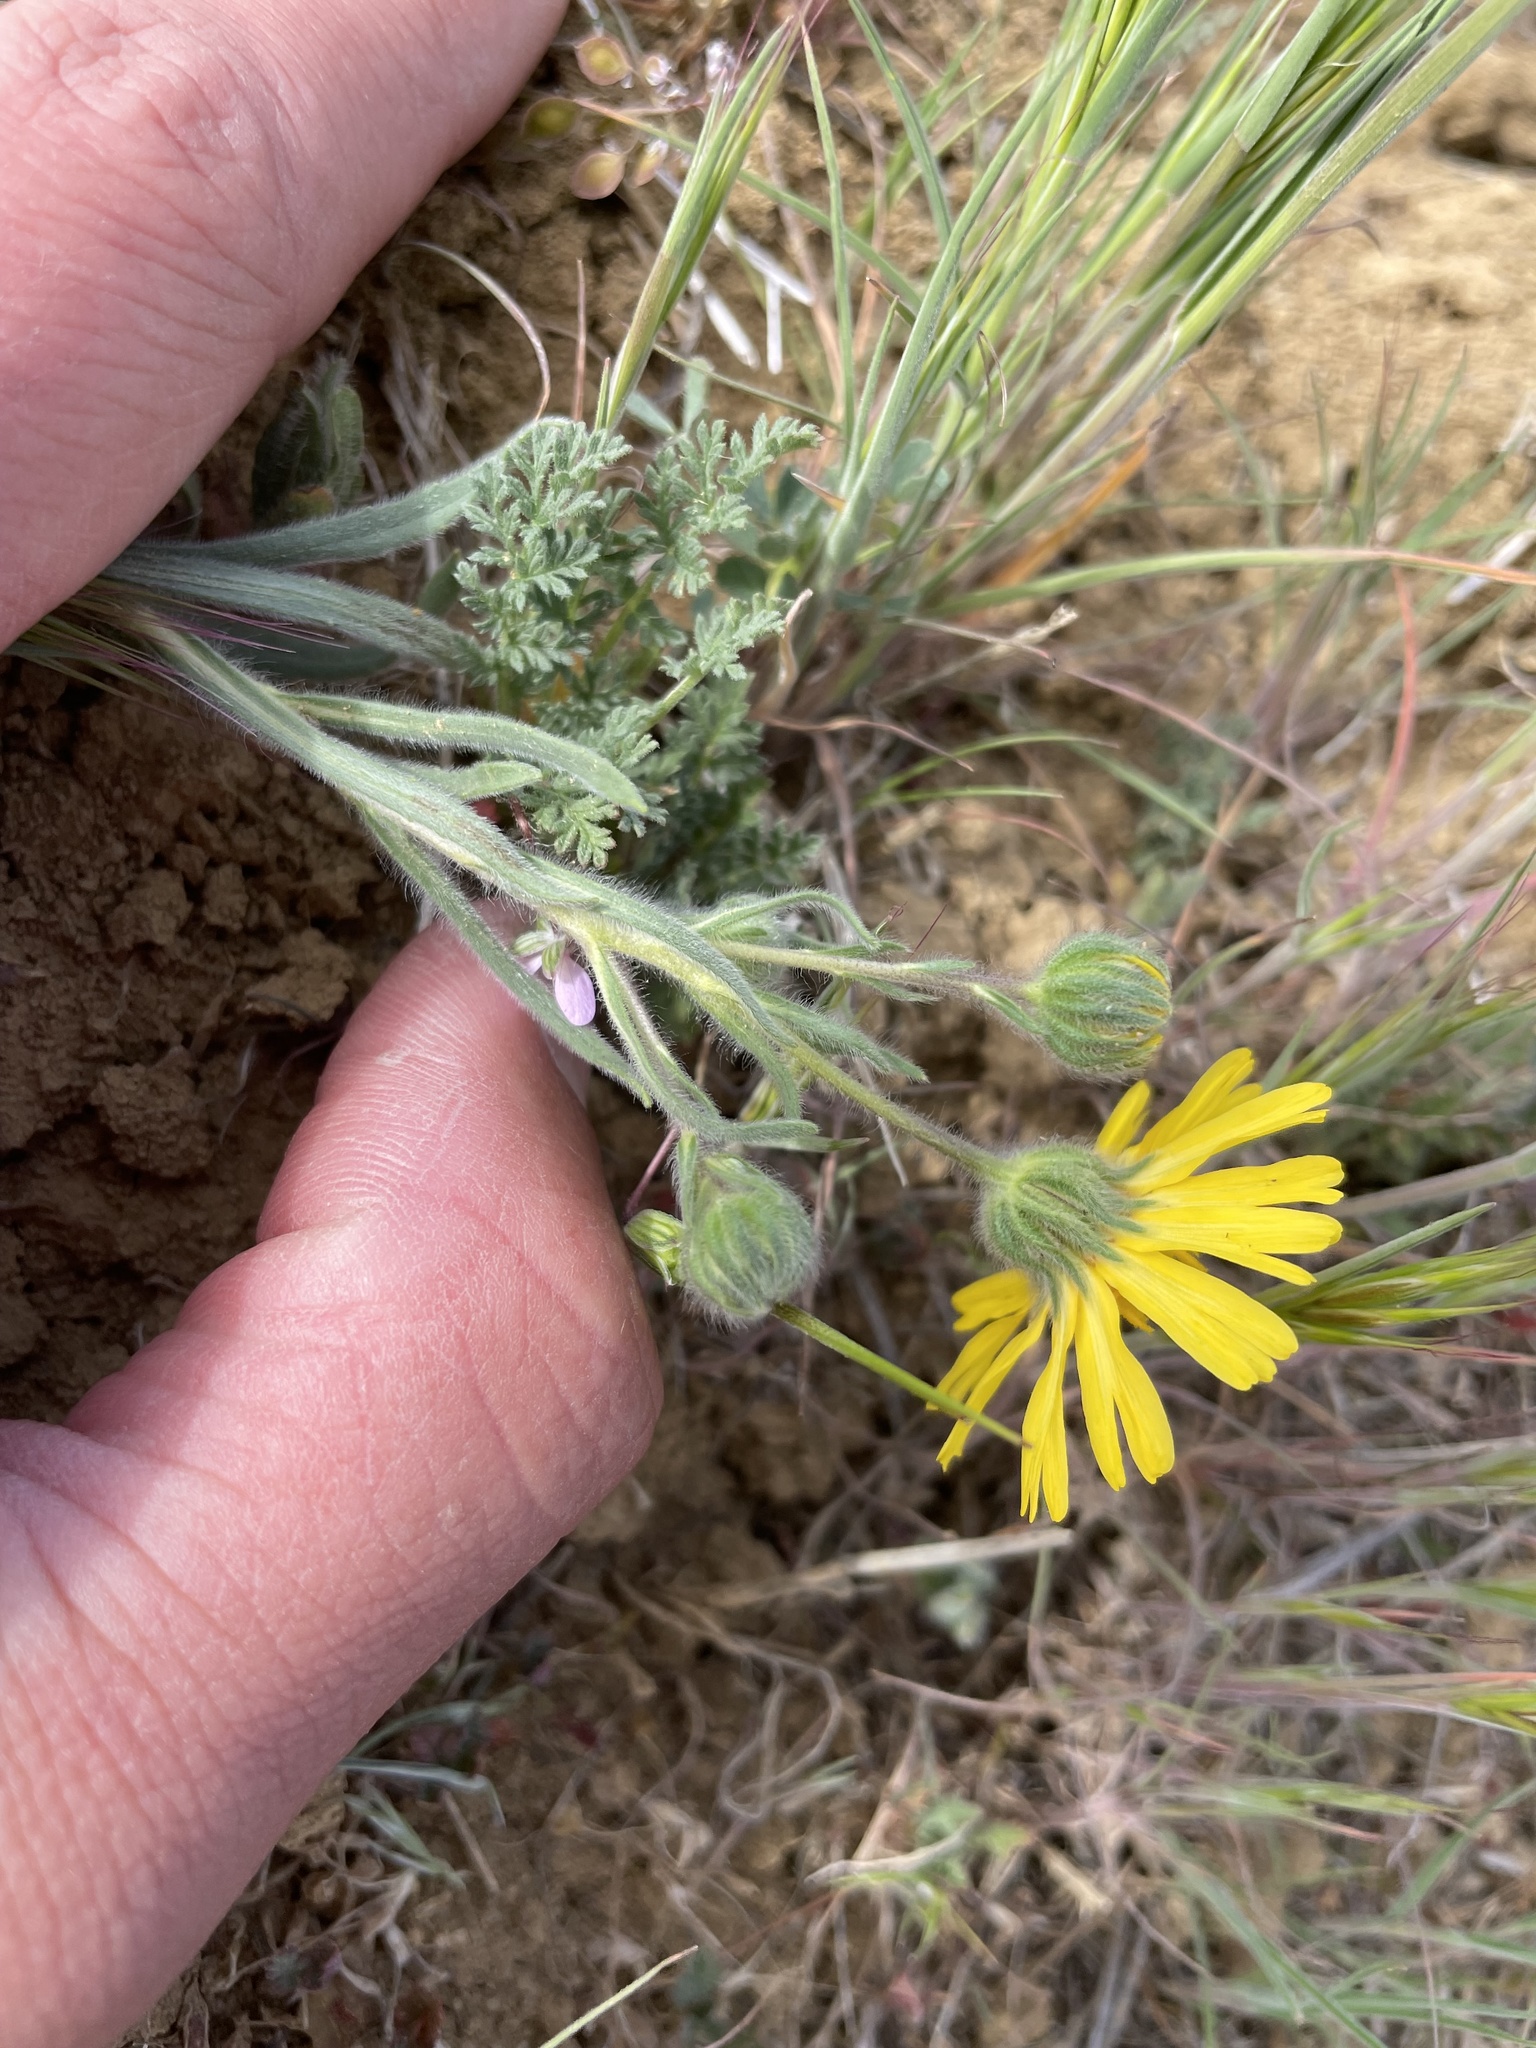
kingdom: Plantae
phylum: Tracheophyta
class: Magnoliopsida
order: Asterales
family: Asteraceae
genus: Madia
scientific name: Madia elegans
